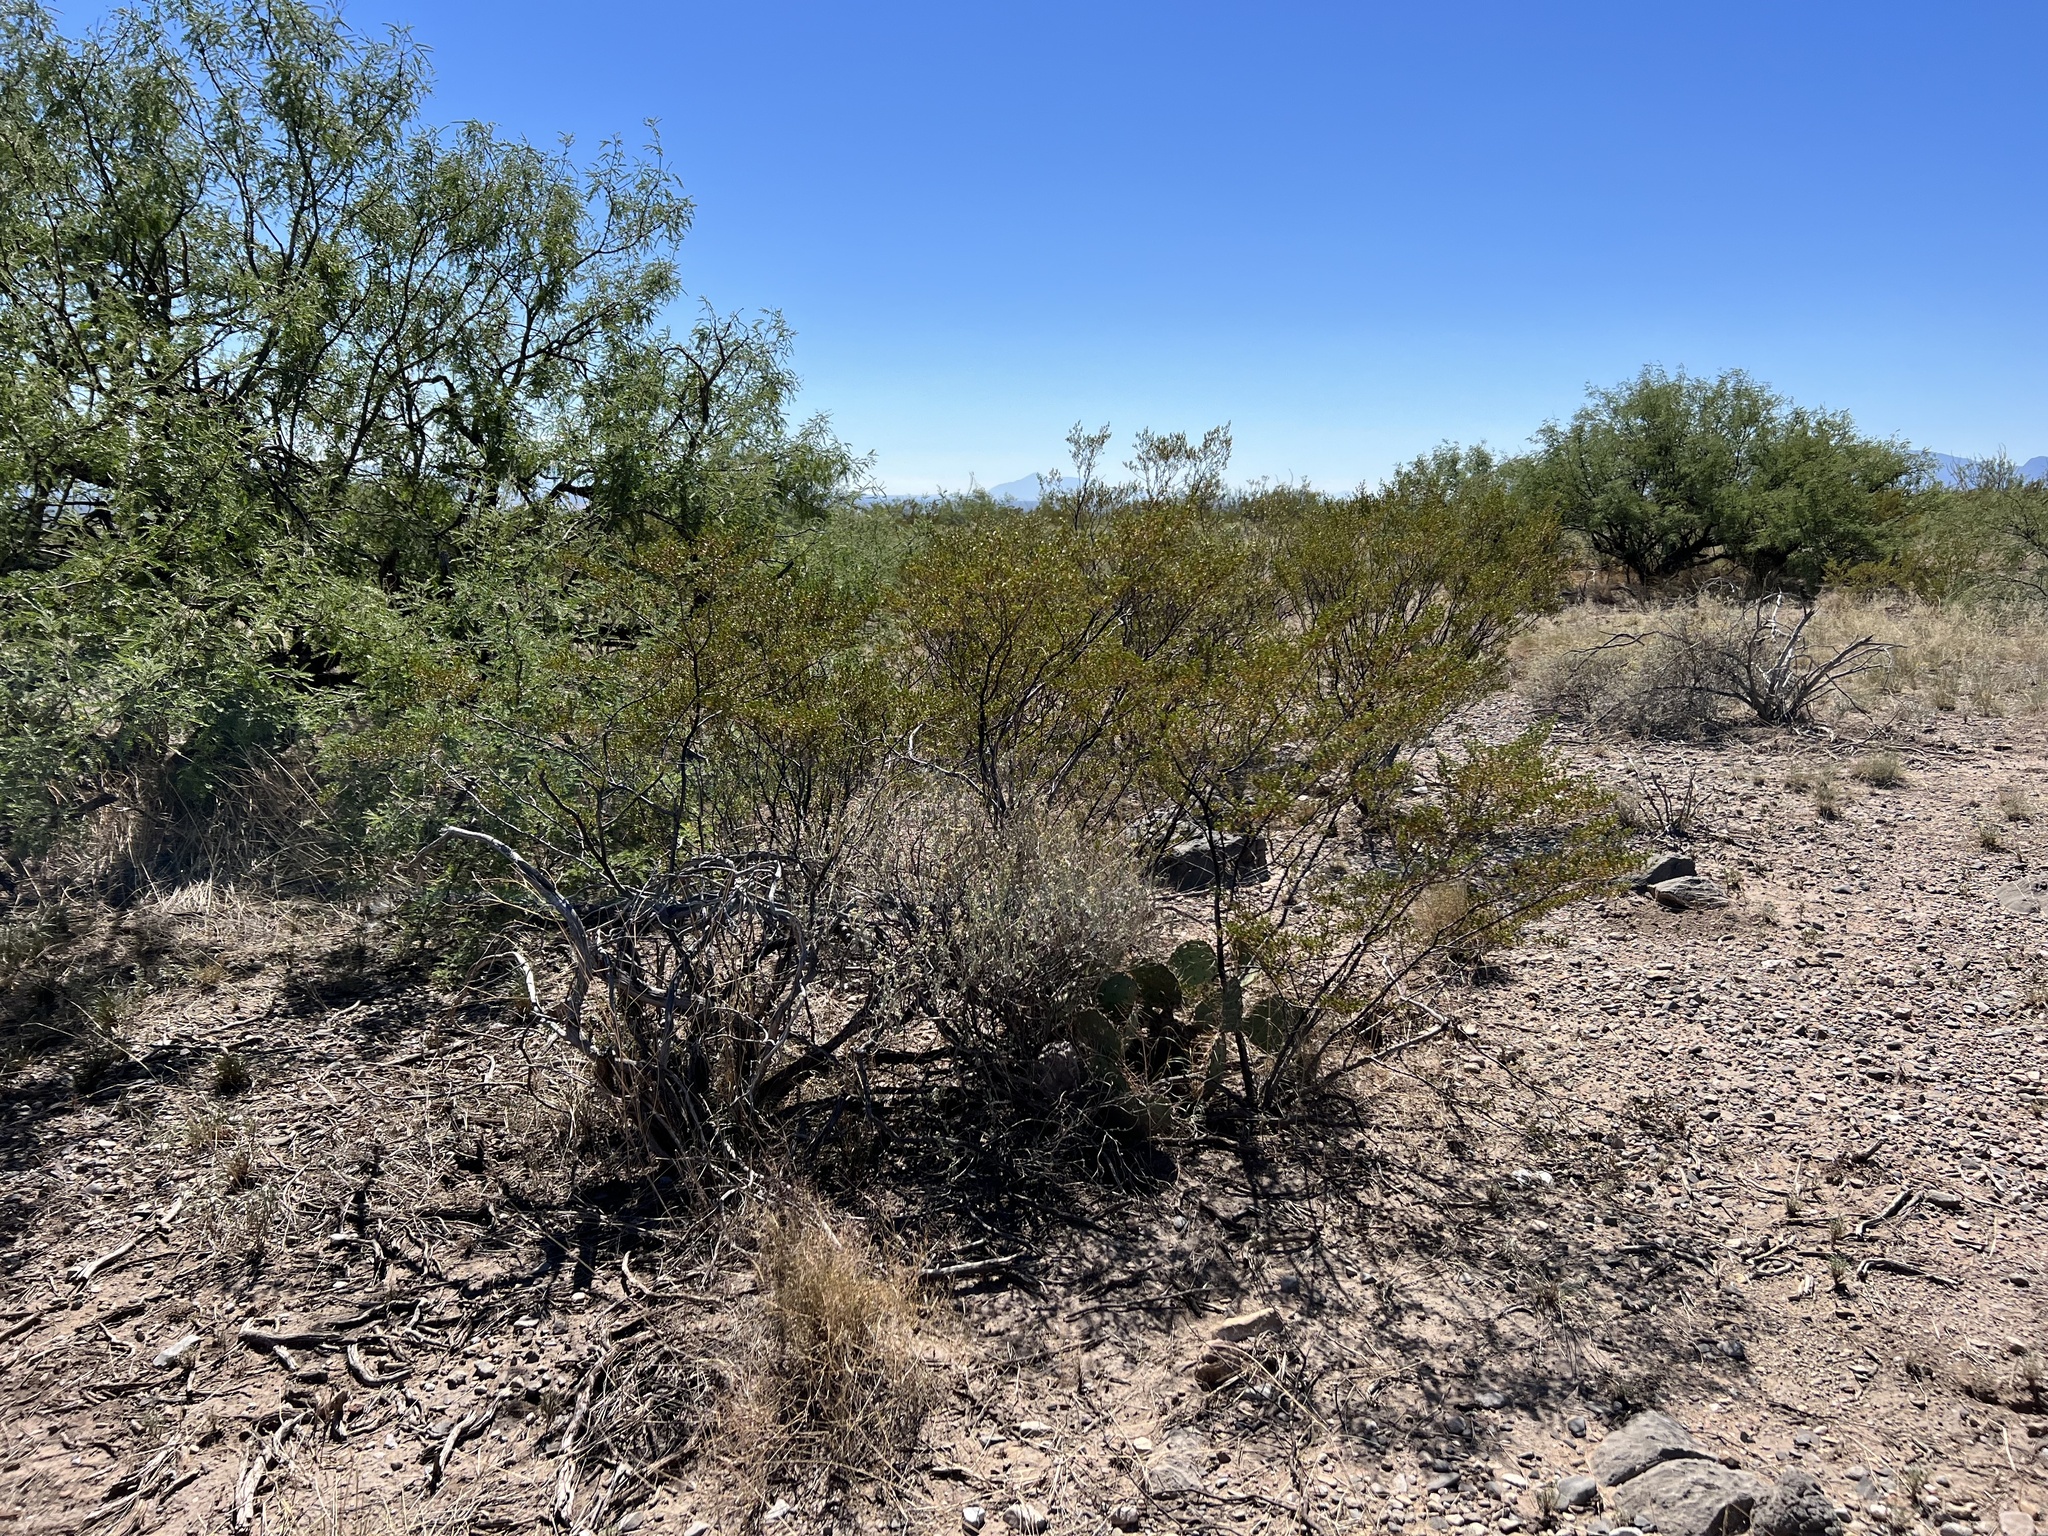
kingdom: Plantae
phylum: Tracheophyta
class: Magnoliopsida
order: Zygophyllales
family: Zygophyllaceae
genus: Larrea
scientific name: Larrea tridentata
